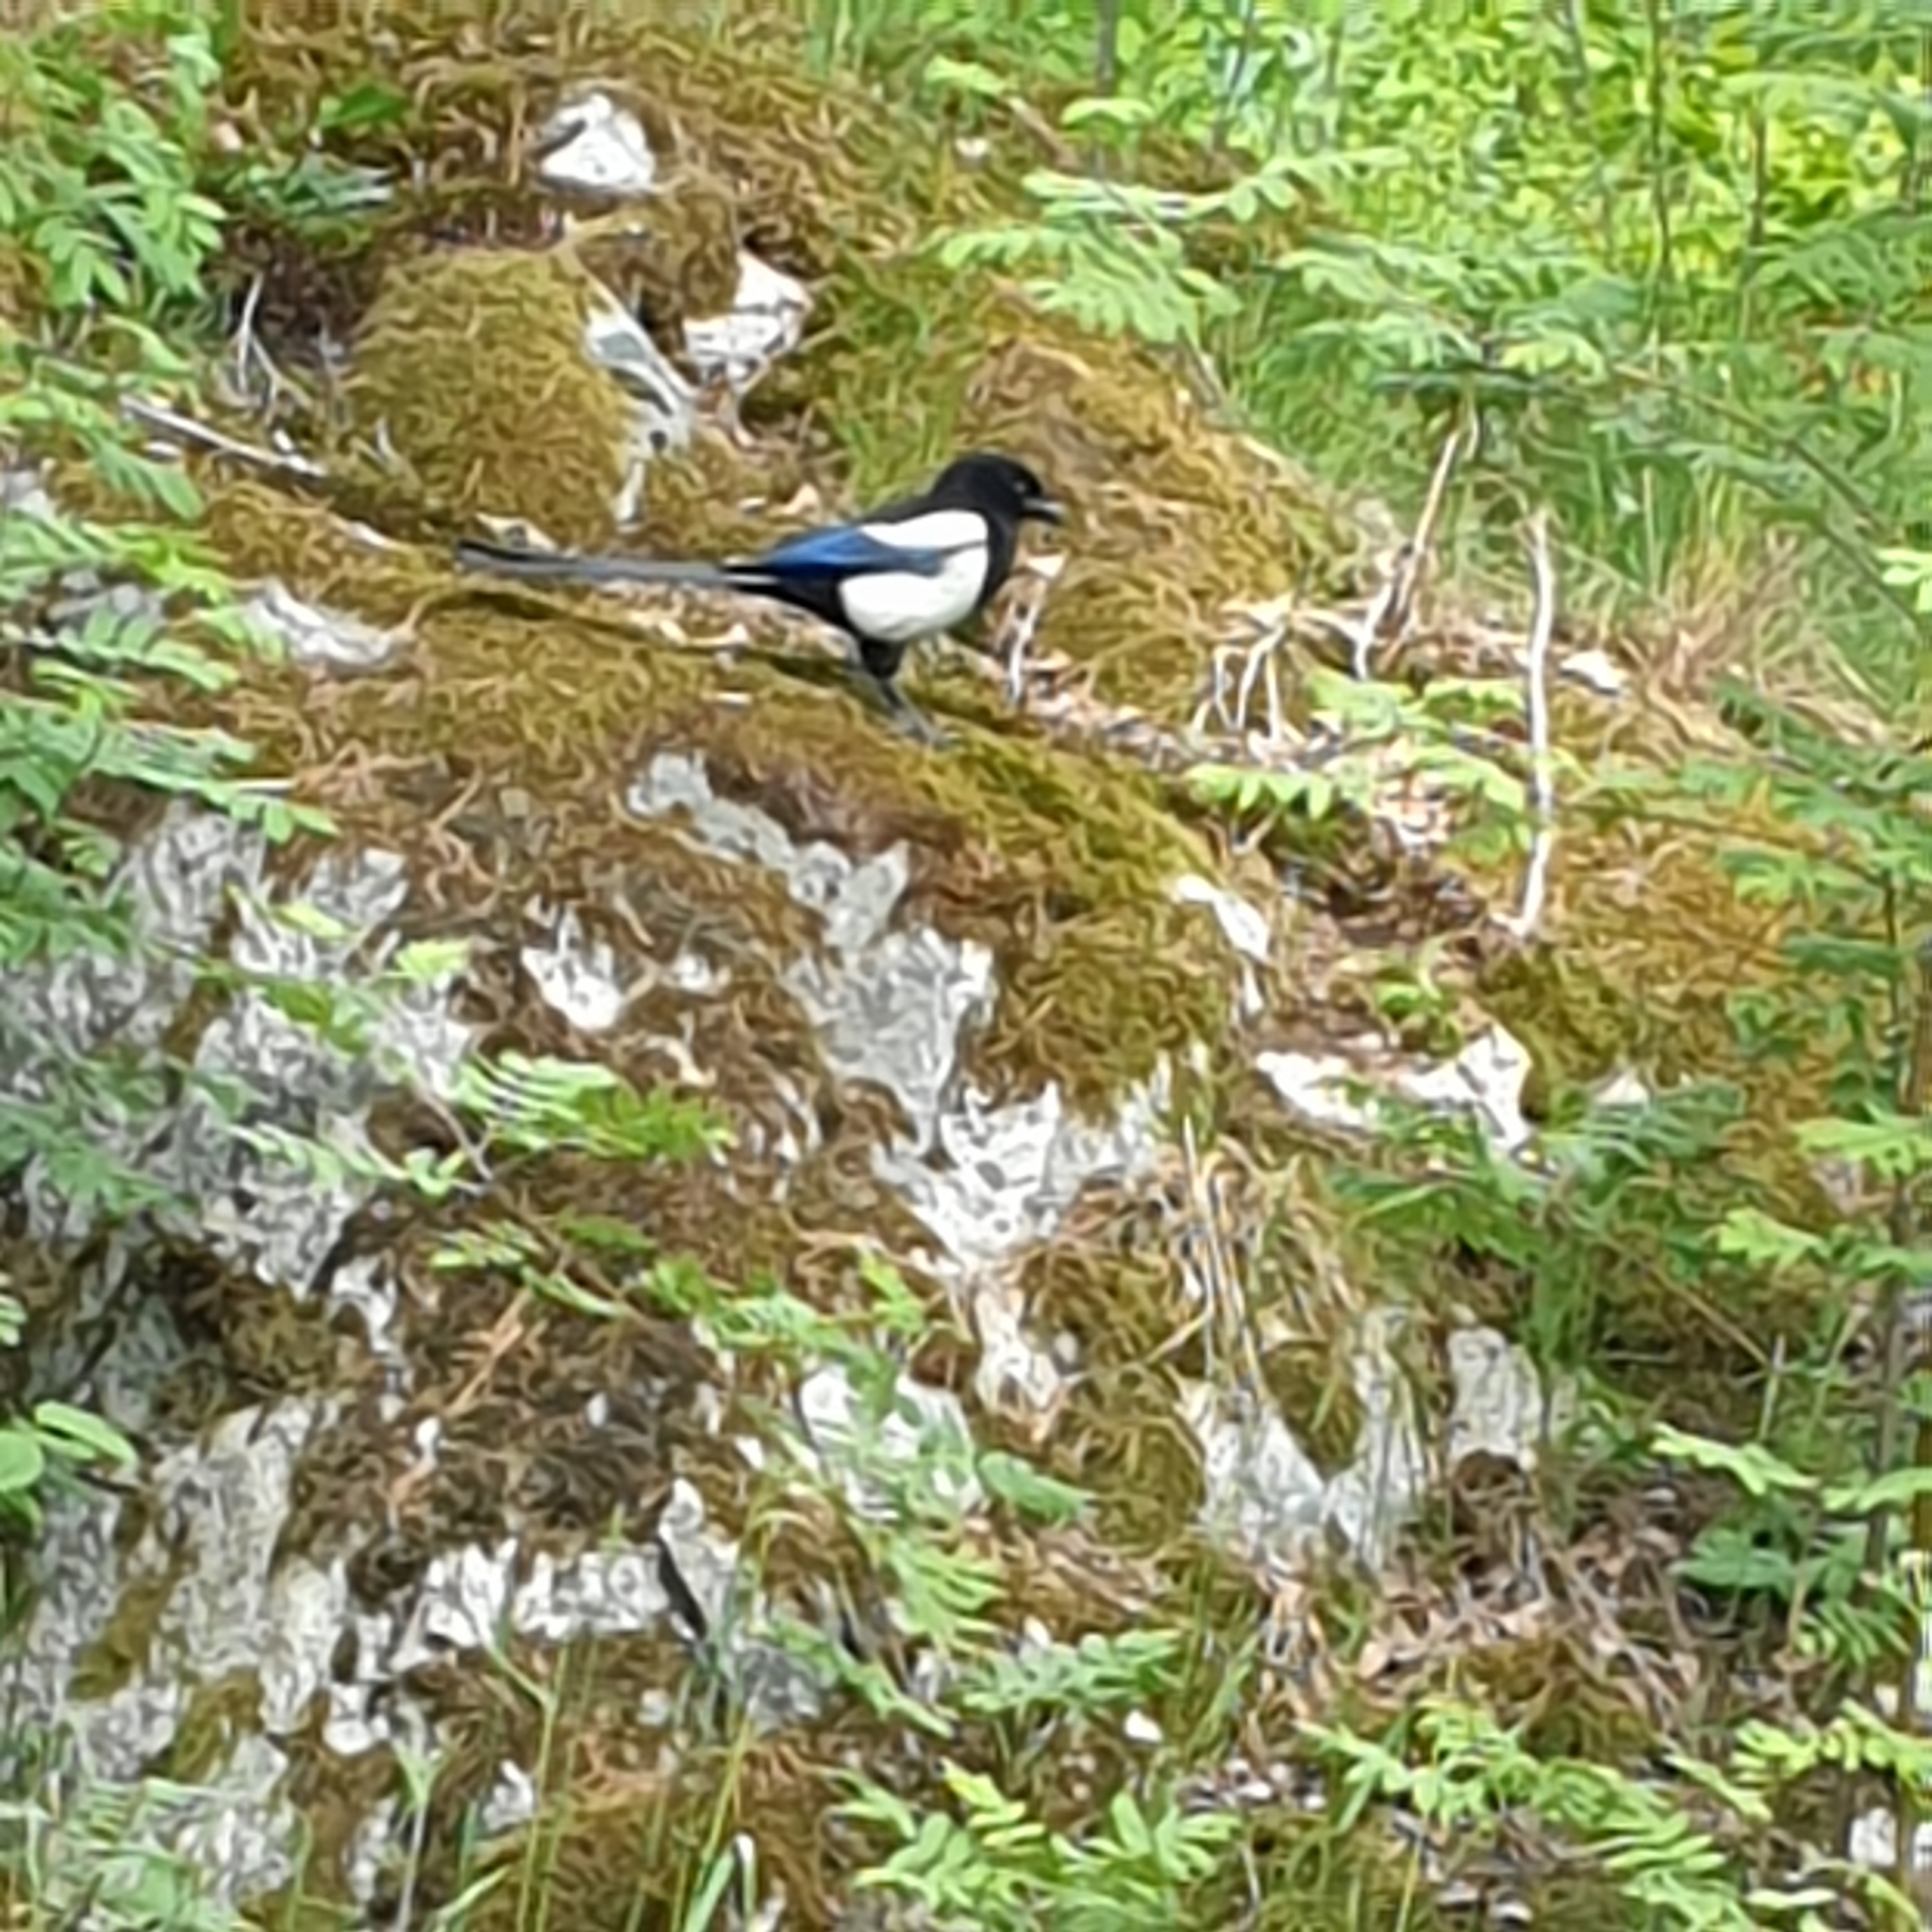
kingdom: Animalia
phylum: Chordata
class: Aves
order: Passeriformes
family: Corvidae
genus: Pica
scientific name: Pica pica
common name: Eurasian magpie
